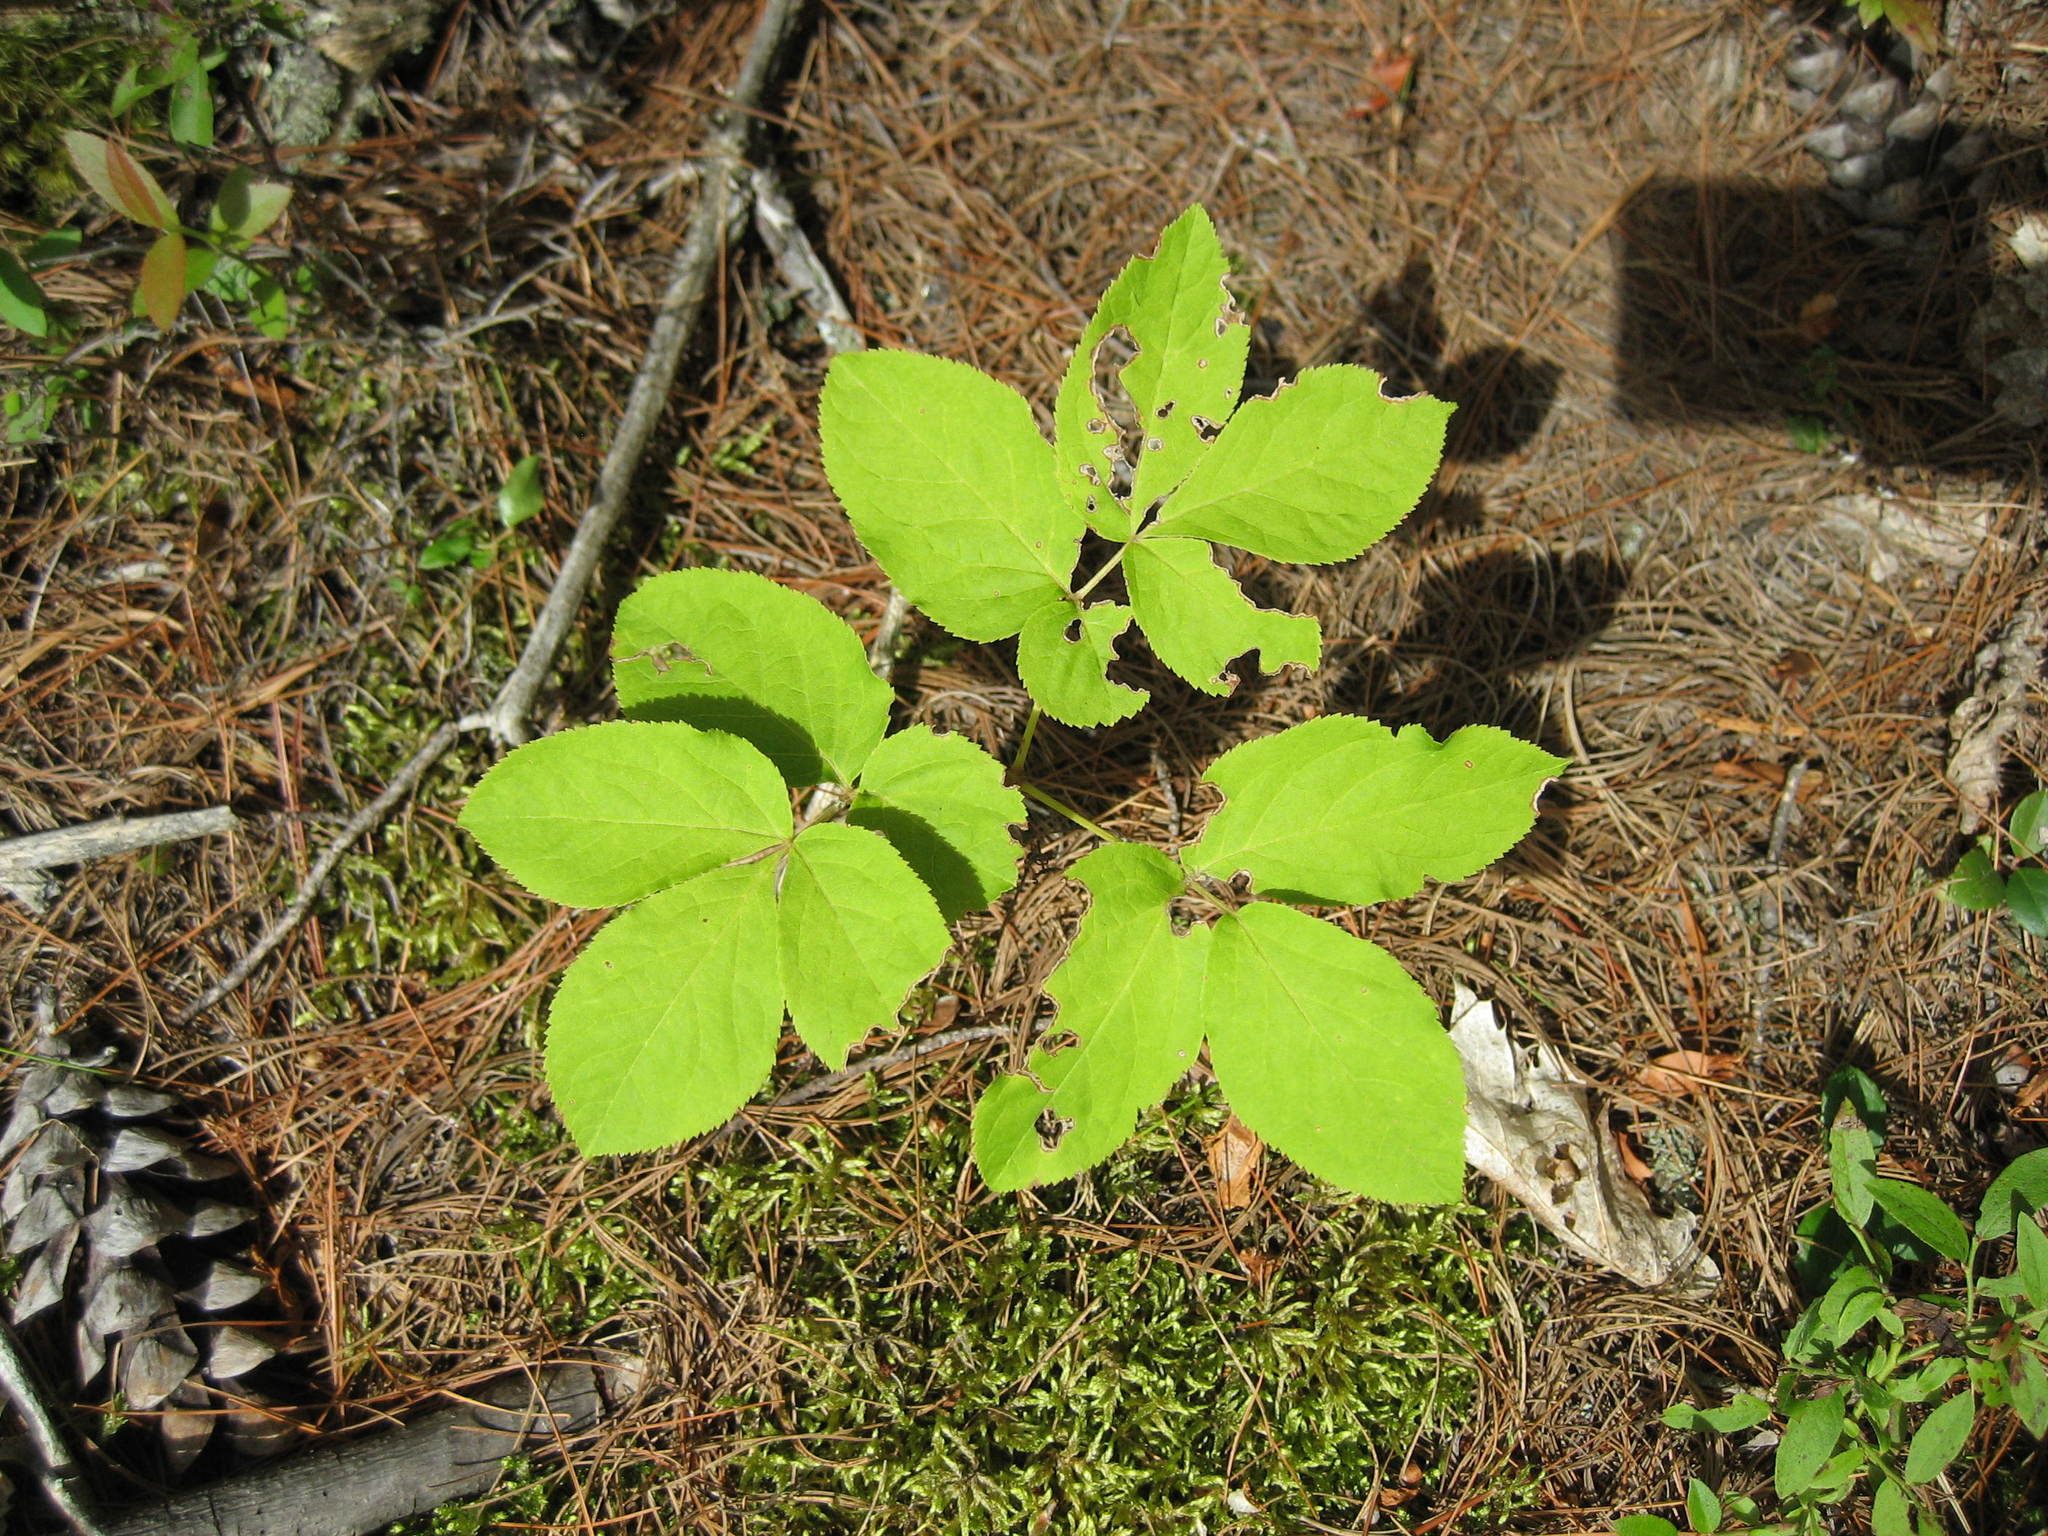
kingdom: Plantae
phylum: Tracheophyta
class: Magnoliopsida
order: Apiales
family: Araliaceae
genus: Aralia
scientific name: Aralia nudicaulis
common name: Wild sarsaparilla
